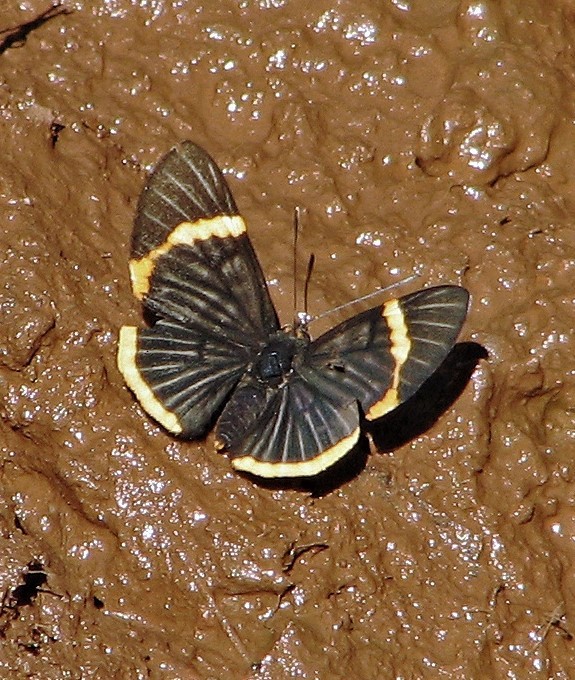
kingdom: Animalia
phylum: Arthropoda
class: Insecta
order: Lepidoptera
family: Riodinidae
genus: Riodina
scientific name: Riodina lycisca
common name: Lycisca metalmark
